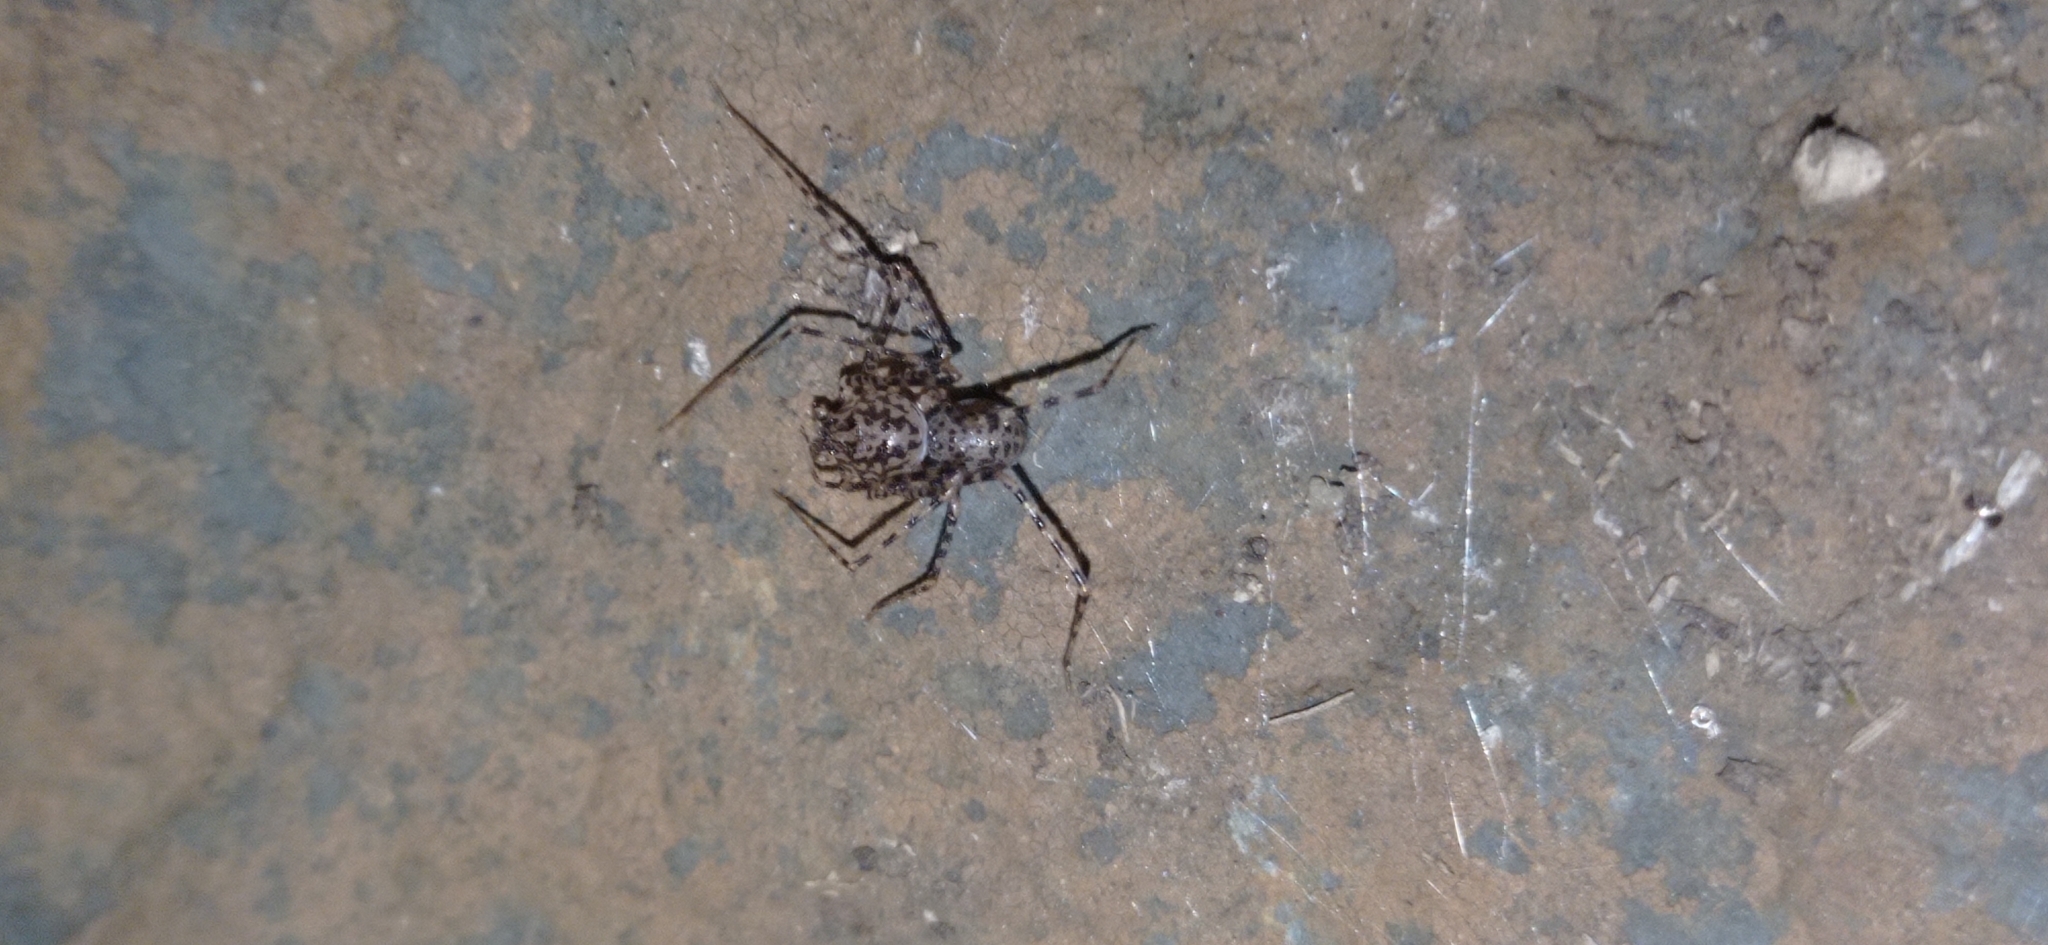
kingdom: Animalia
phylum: Arthropoda
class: Arachnida
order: Araneae
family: Scytodidae
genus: Scytodes
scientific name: Scytodes globula
